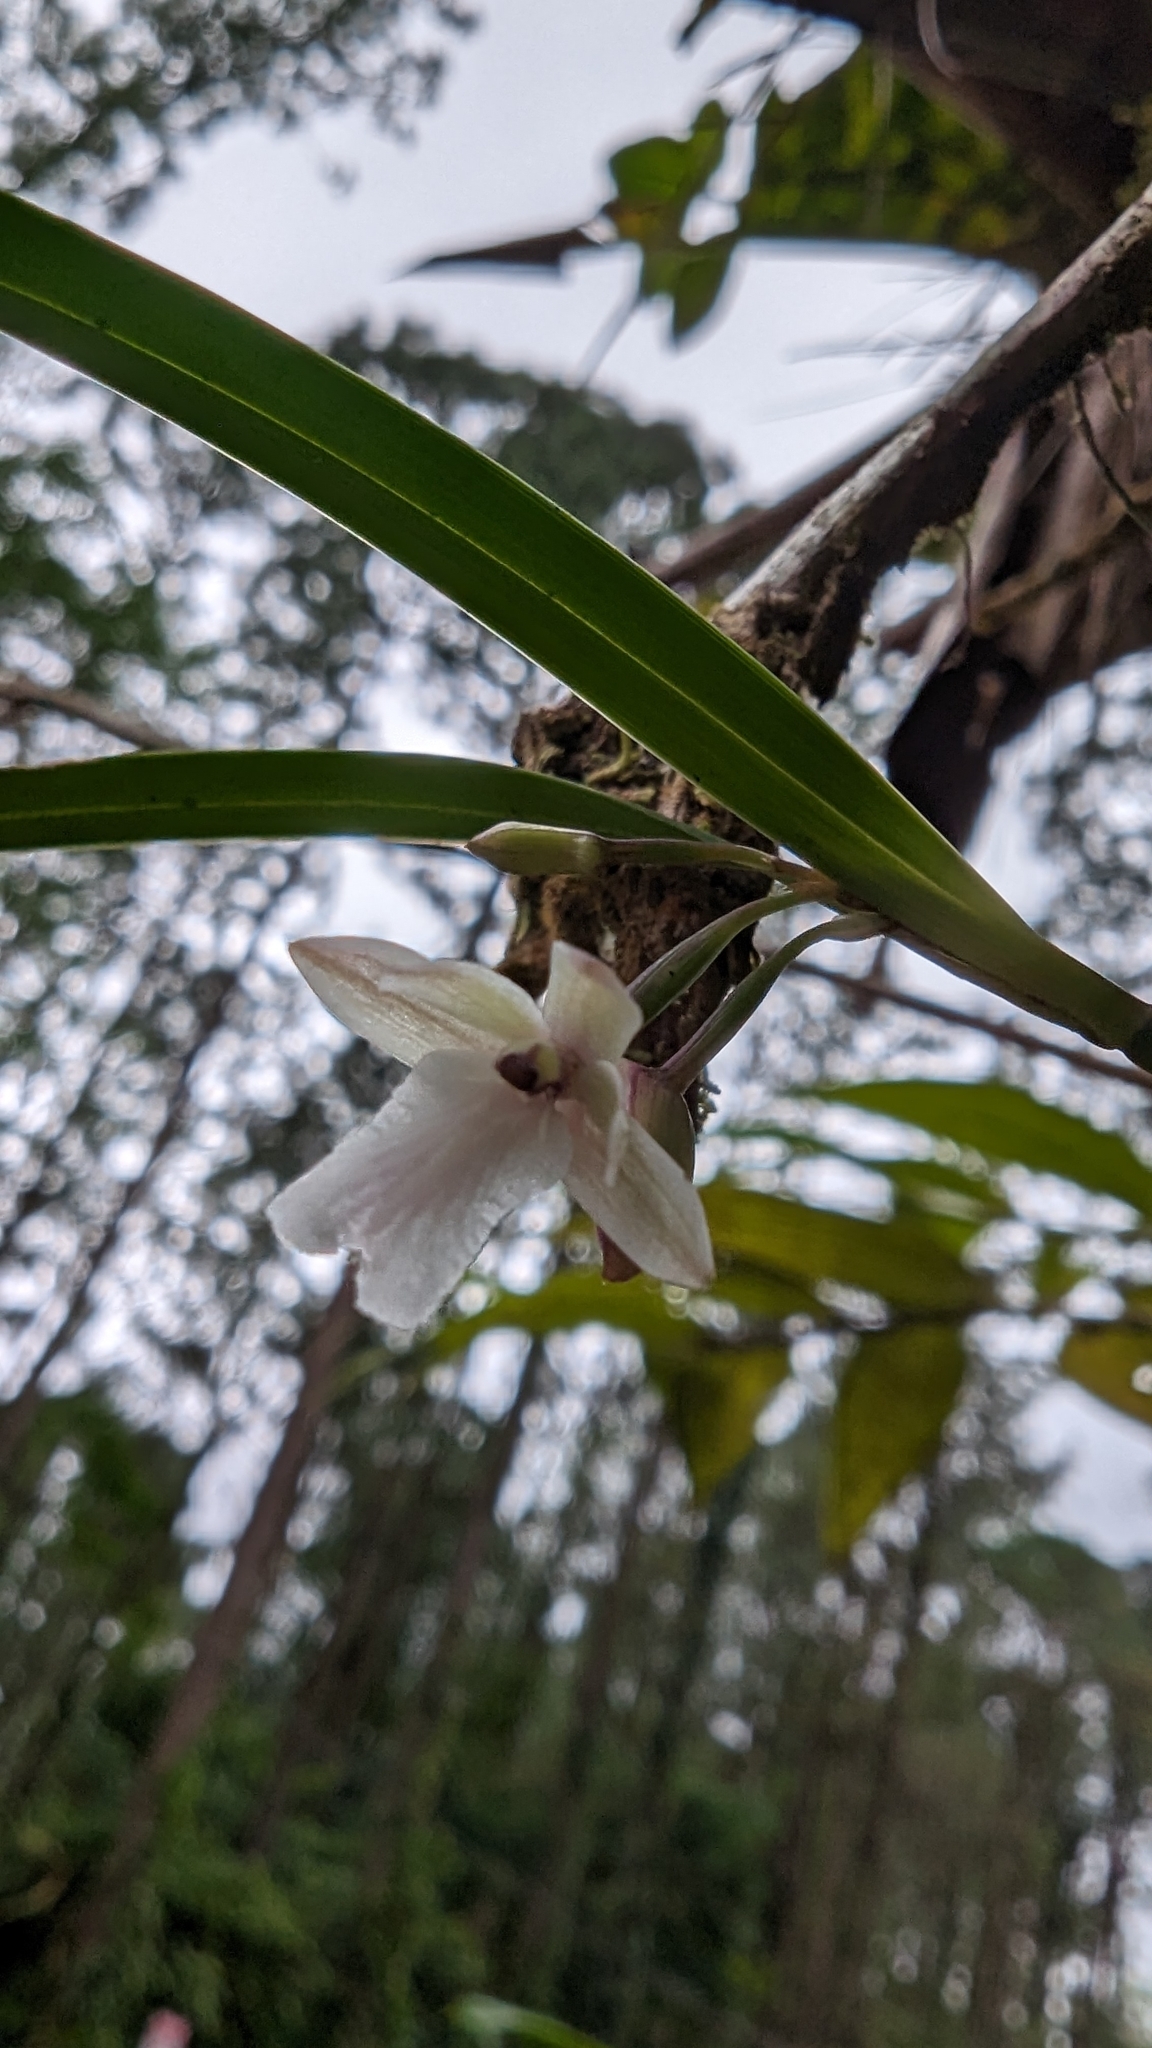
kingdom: Plantae
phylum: Tracheophyta
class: Liliopsida
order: Asparagales
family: Orchidaceae
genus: Scaphyglottis
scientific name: Scaphyglottis mesocopis
